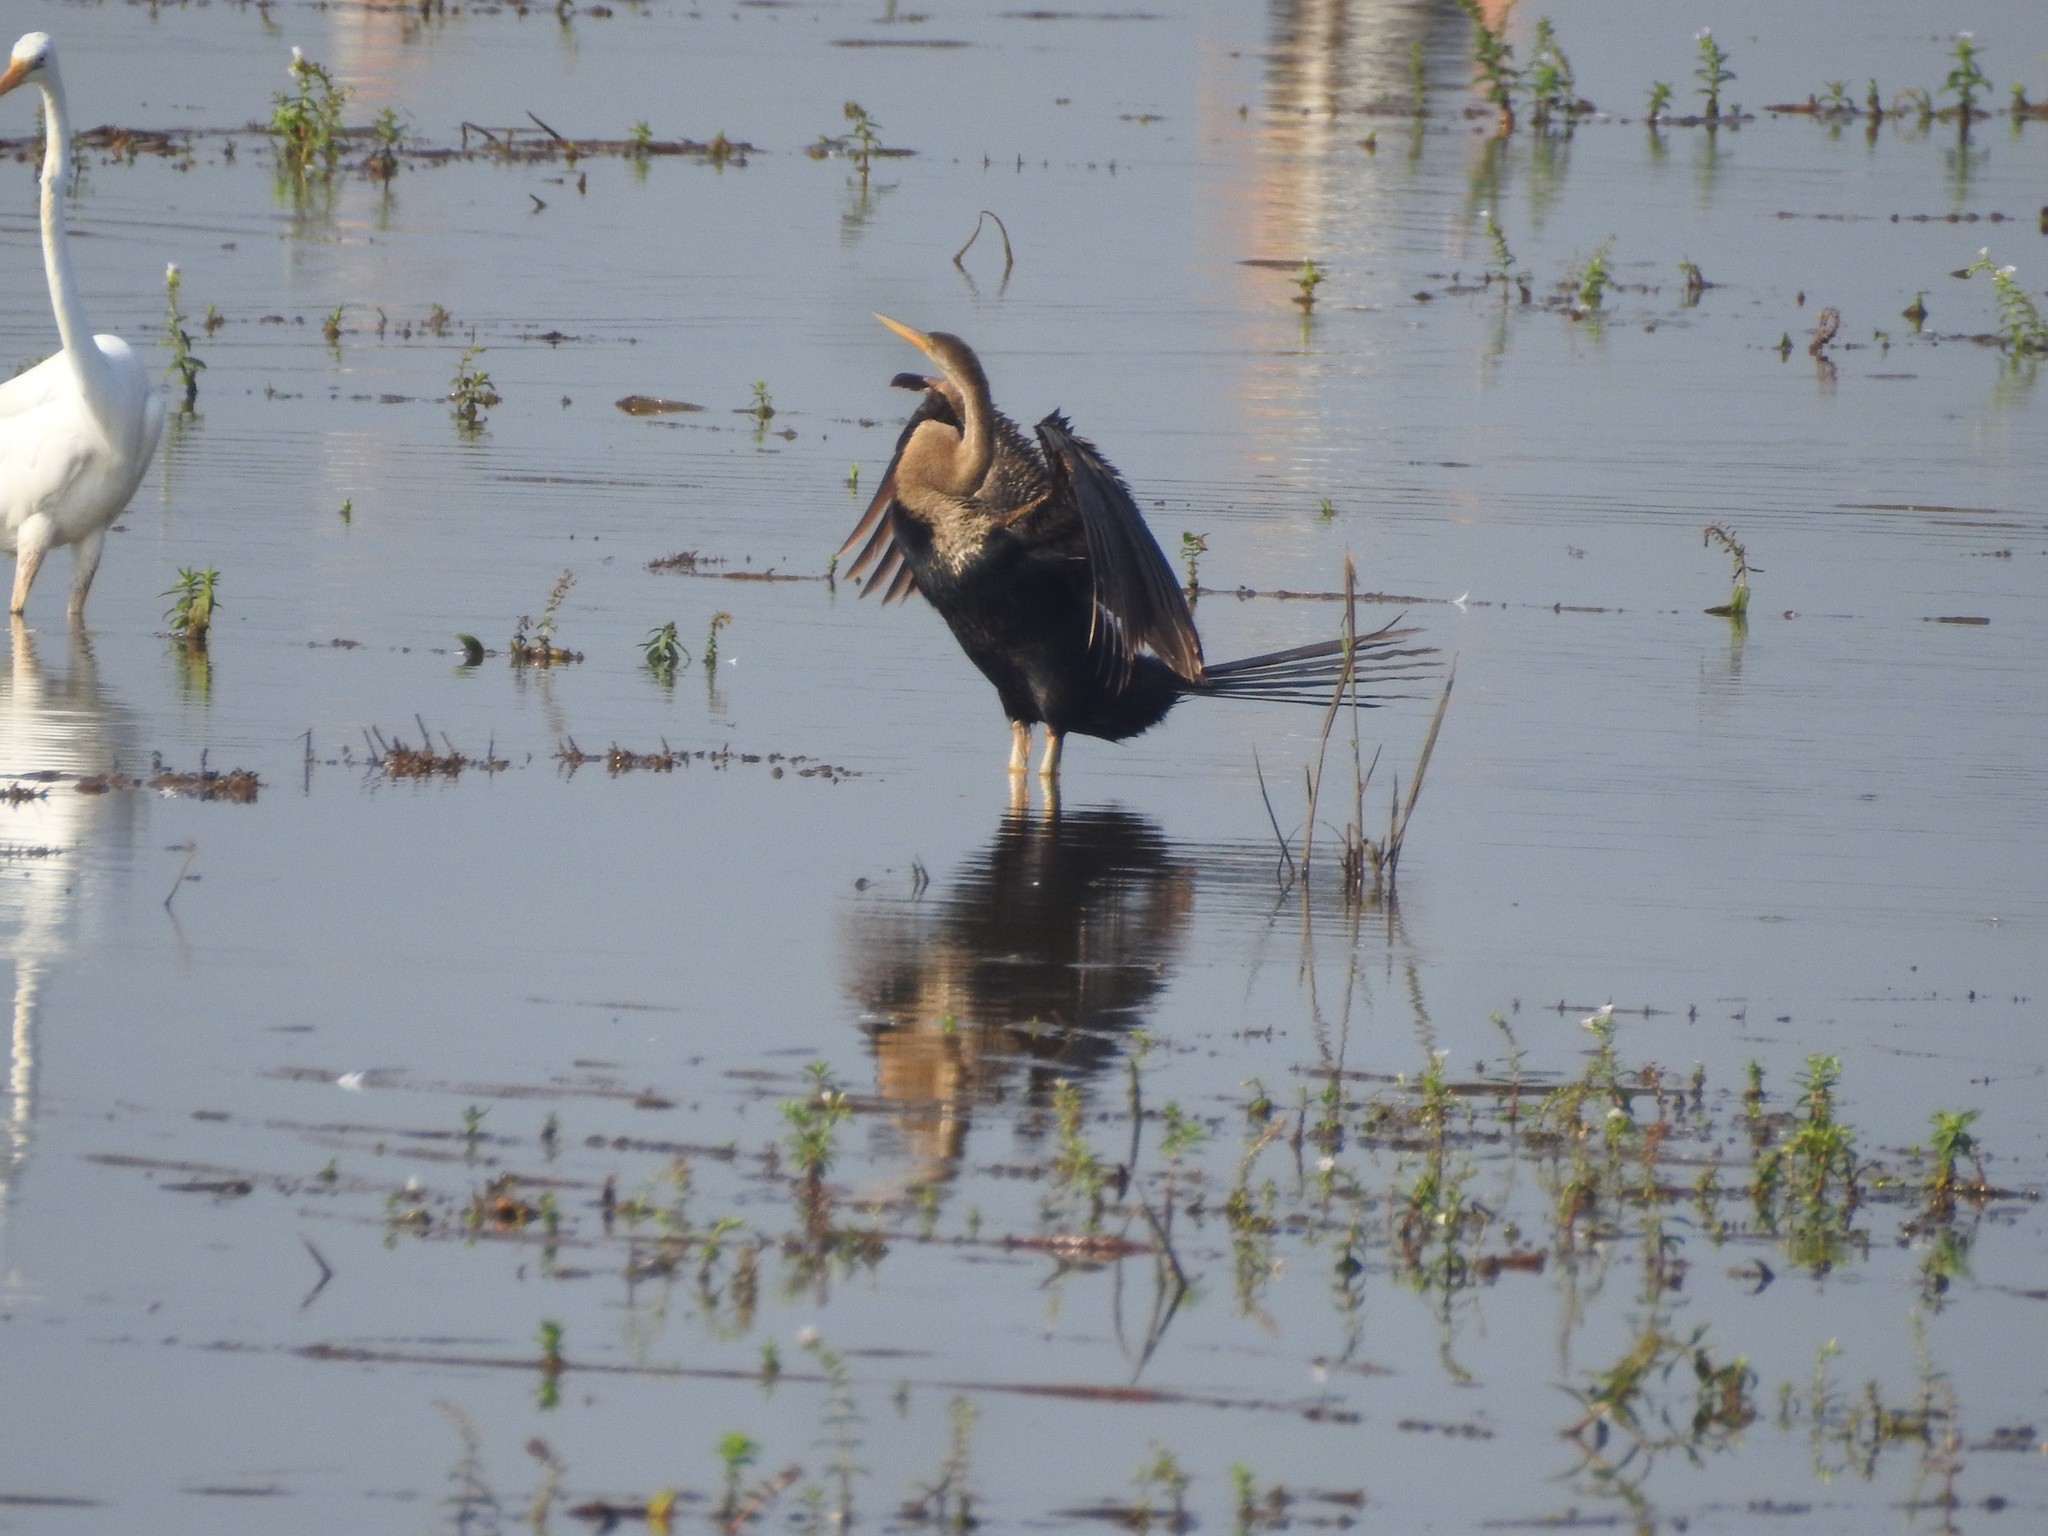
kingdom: Animalia
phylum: Chordata
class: Aves
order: Suliformes
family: Anhingidae
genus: Anhinga
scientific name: Anhinga melanogaster
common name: Oriental darter
